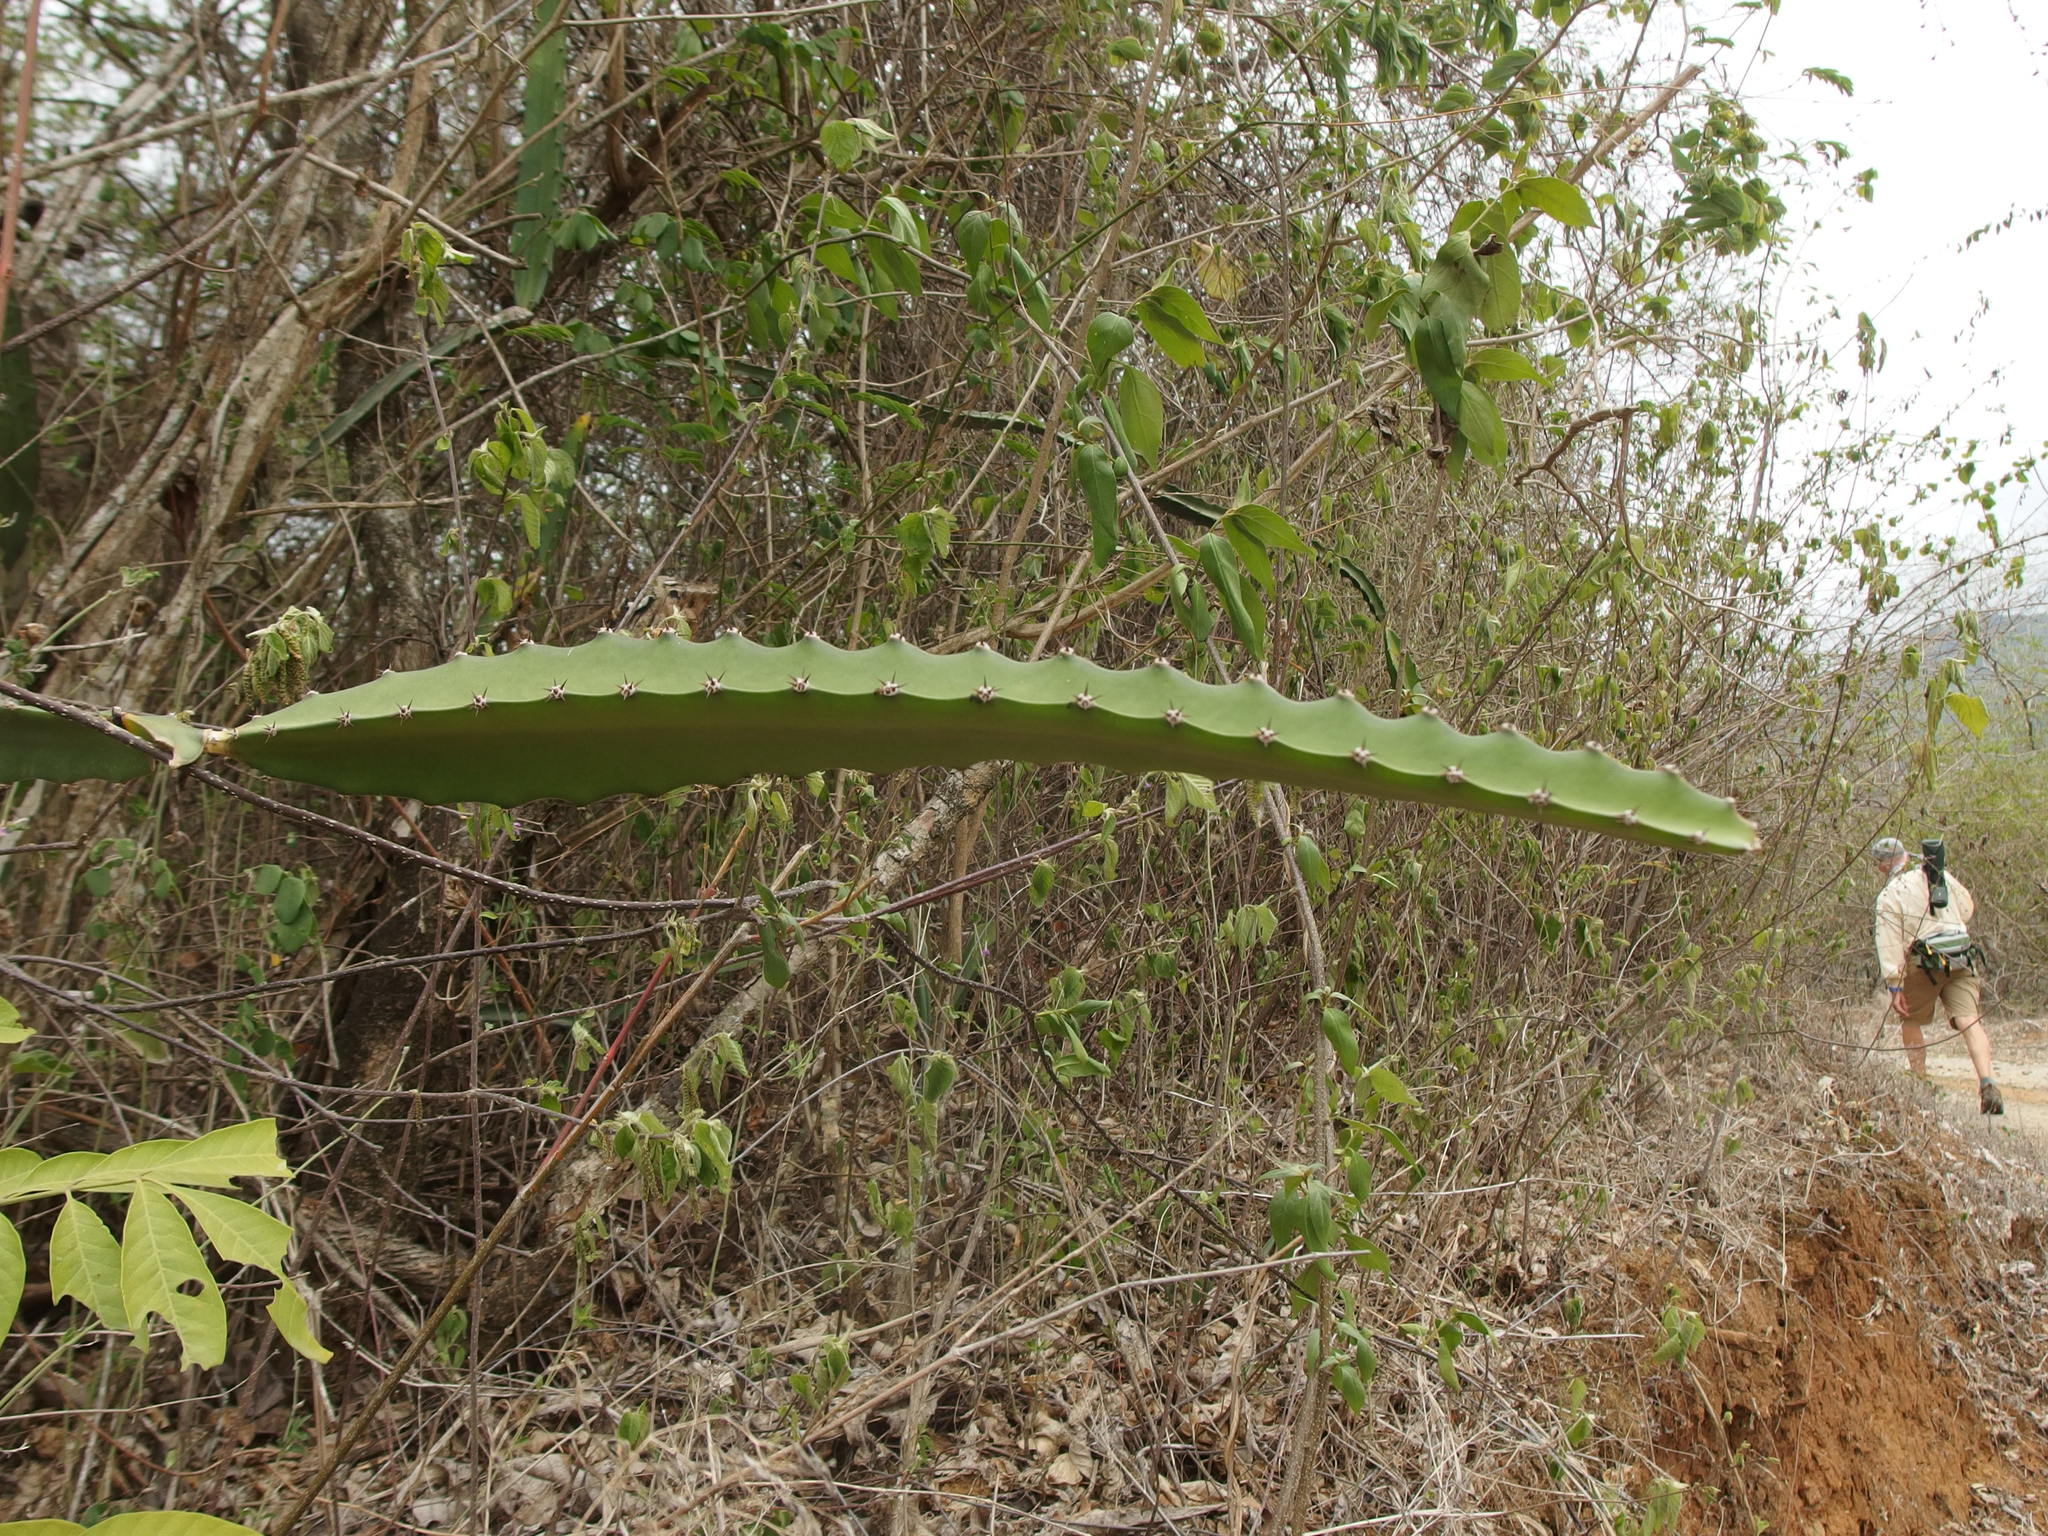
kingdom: Plantae
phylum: Tracheophyta
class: Magnoliopsida
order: Caryophyllales
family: Cactaceae
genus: Selenicereus
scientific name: Selenicereus monacanthus
